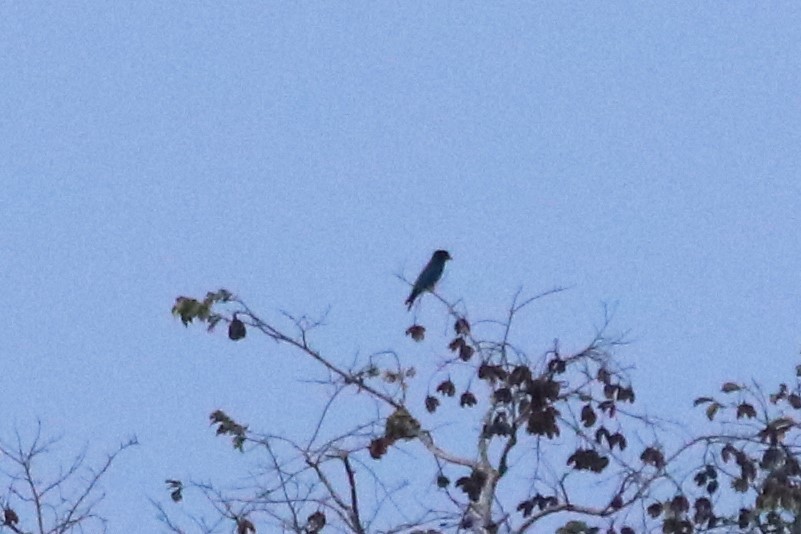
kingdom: Animalia
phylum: Chordata
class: Aves
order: Coraciiformes
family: Coraciidae
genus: Eurystomus
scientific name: Eurystomus orientalis
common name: Oriental dollarbird
